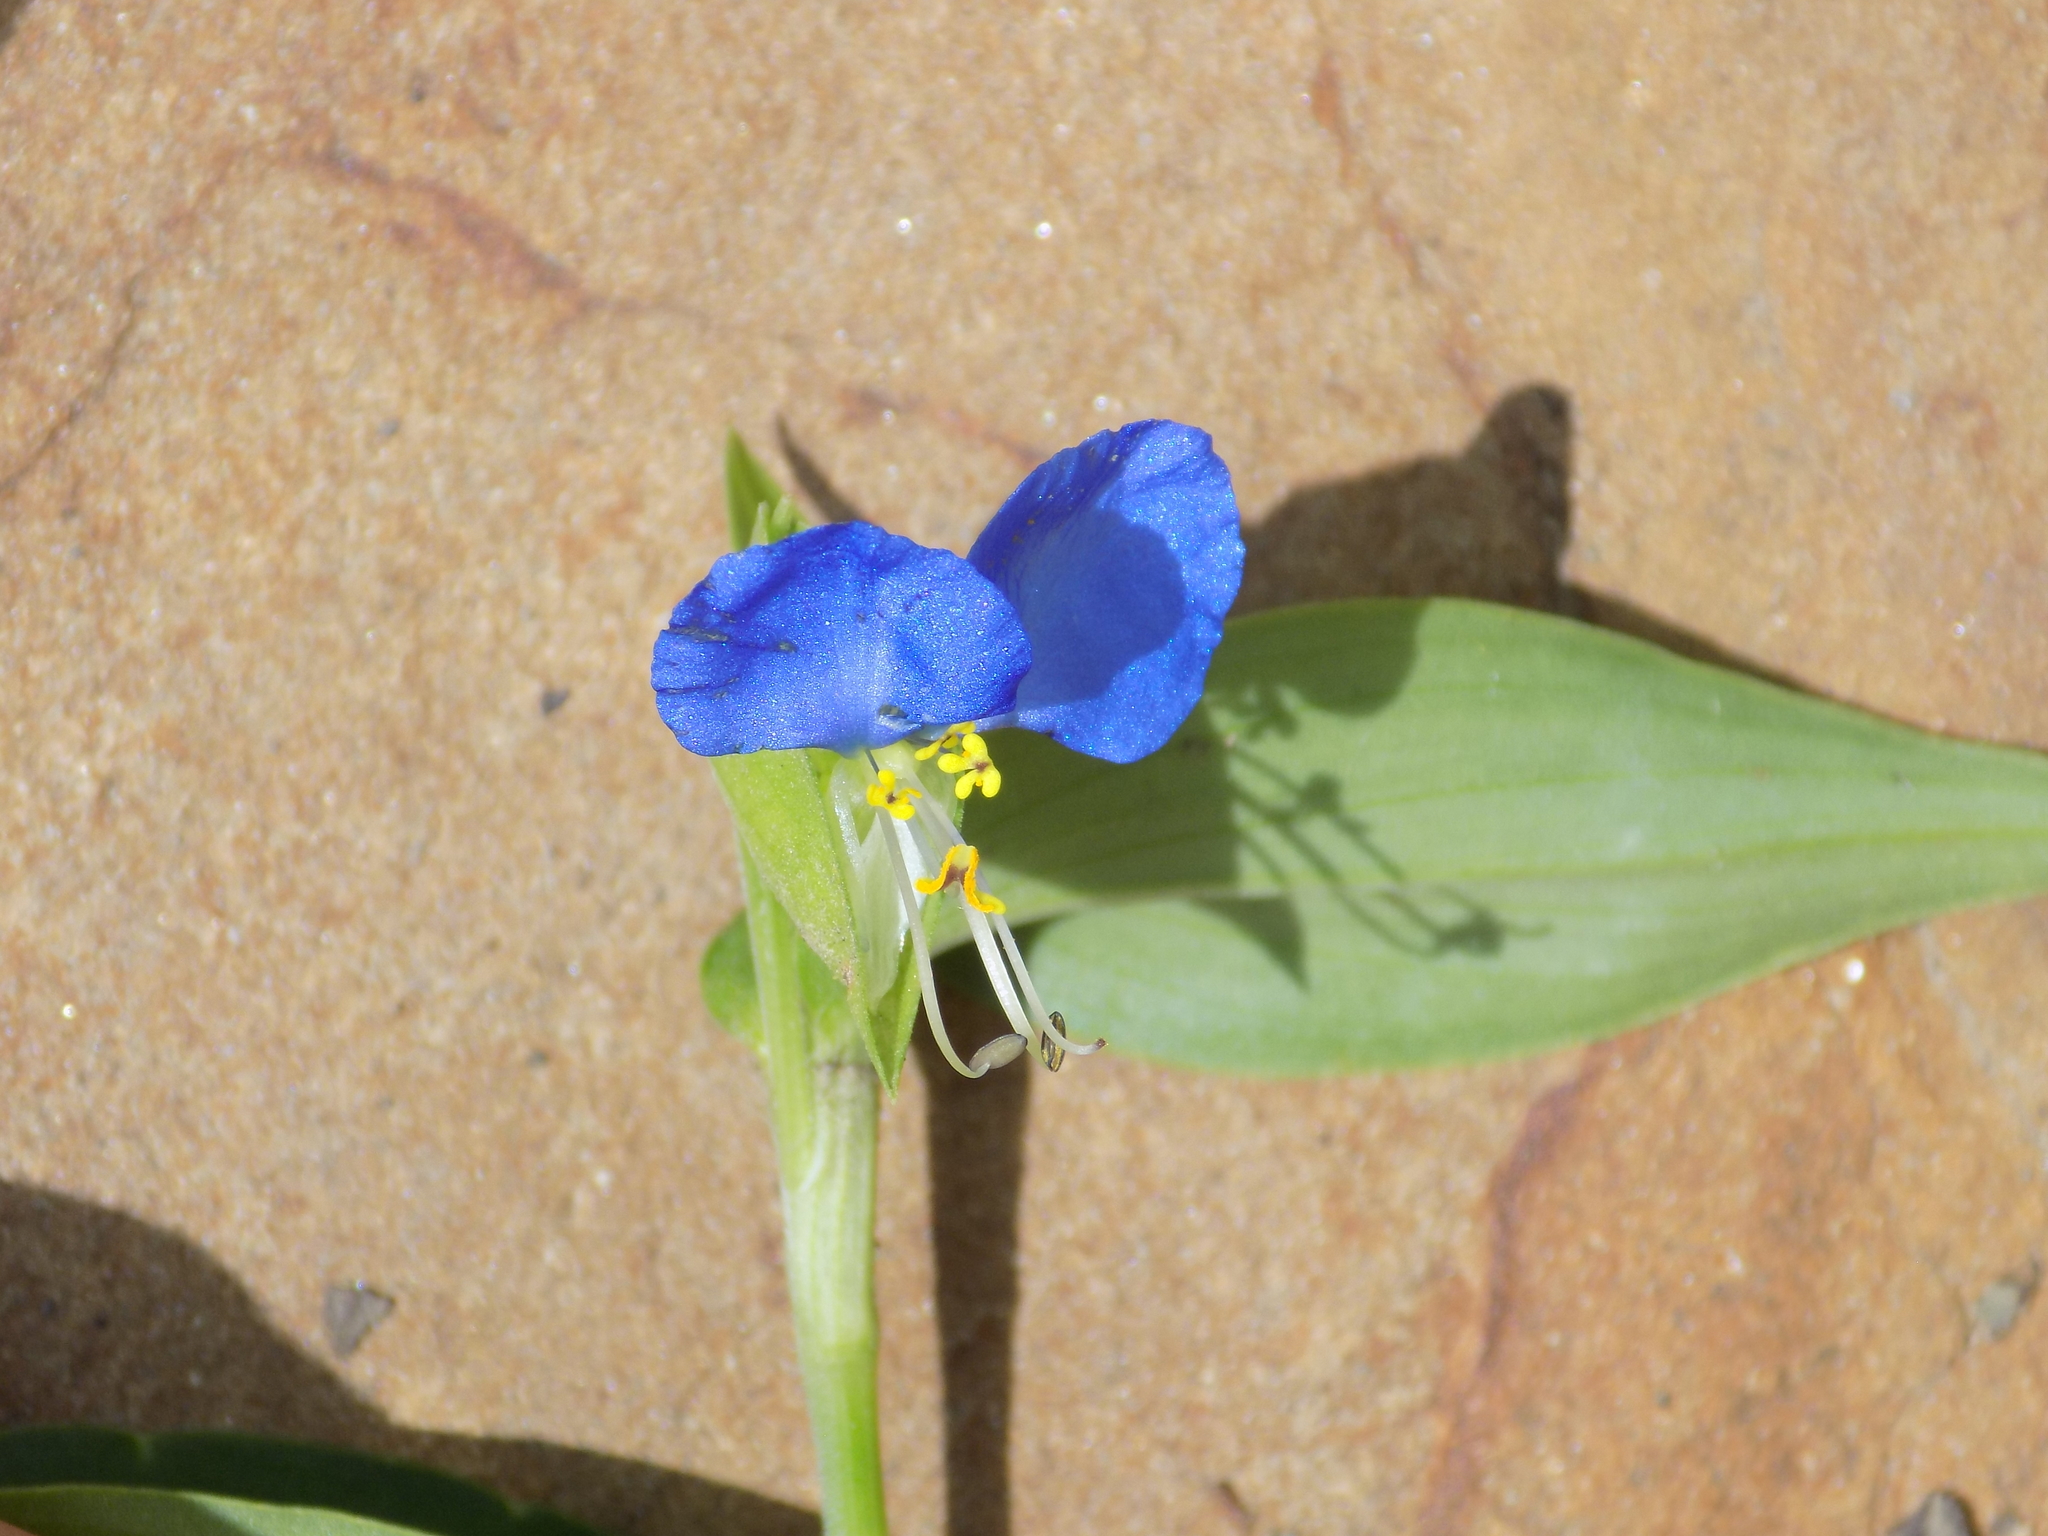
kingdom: Plantae
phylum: Tracheophyta
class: Liliopsida
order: Commelinales
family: Commelinaceae
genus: Commelina
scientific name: Commelina communis
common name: Asiatic dayflower
